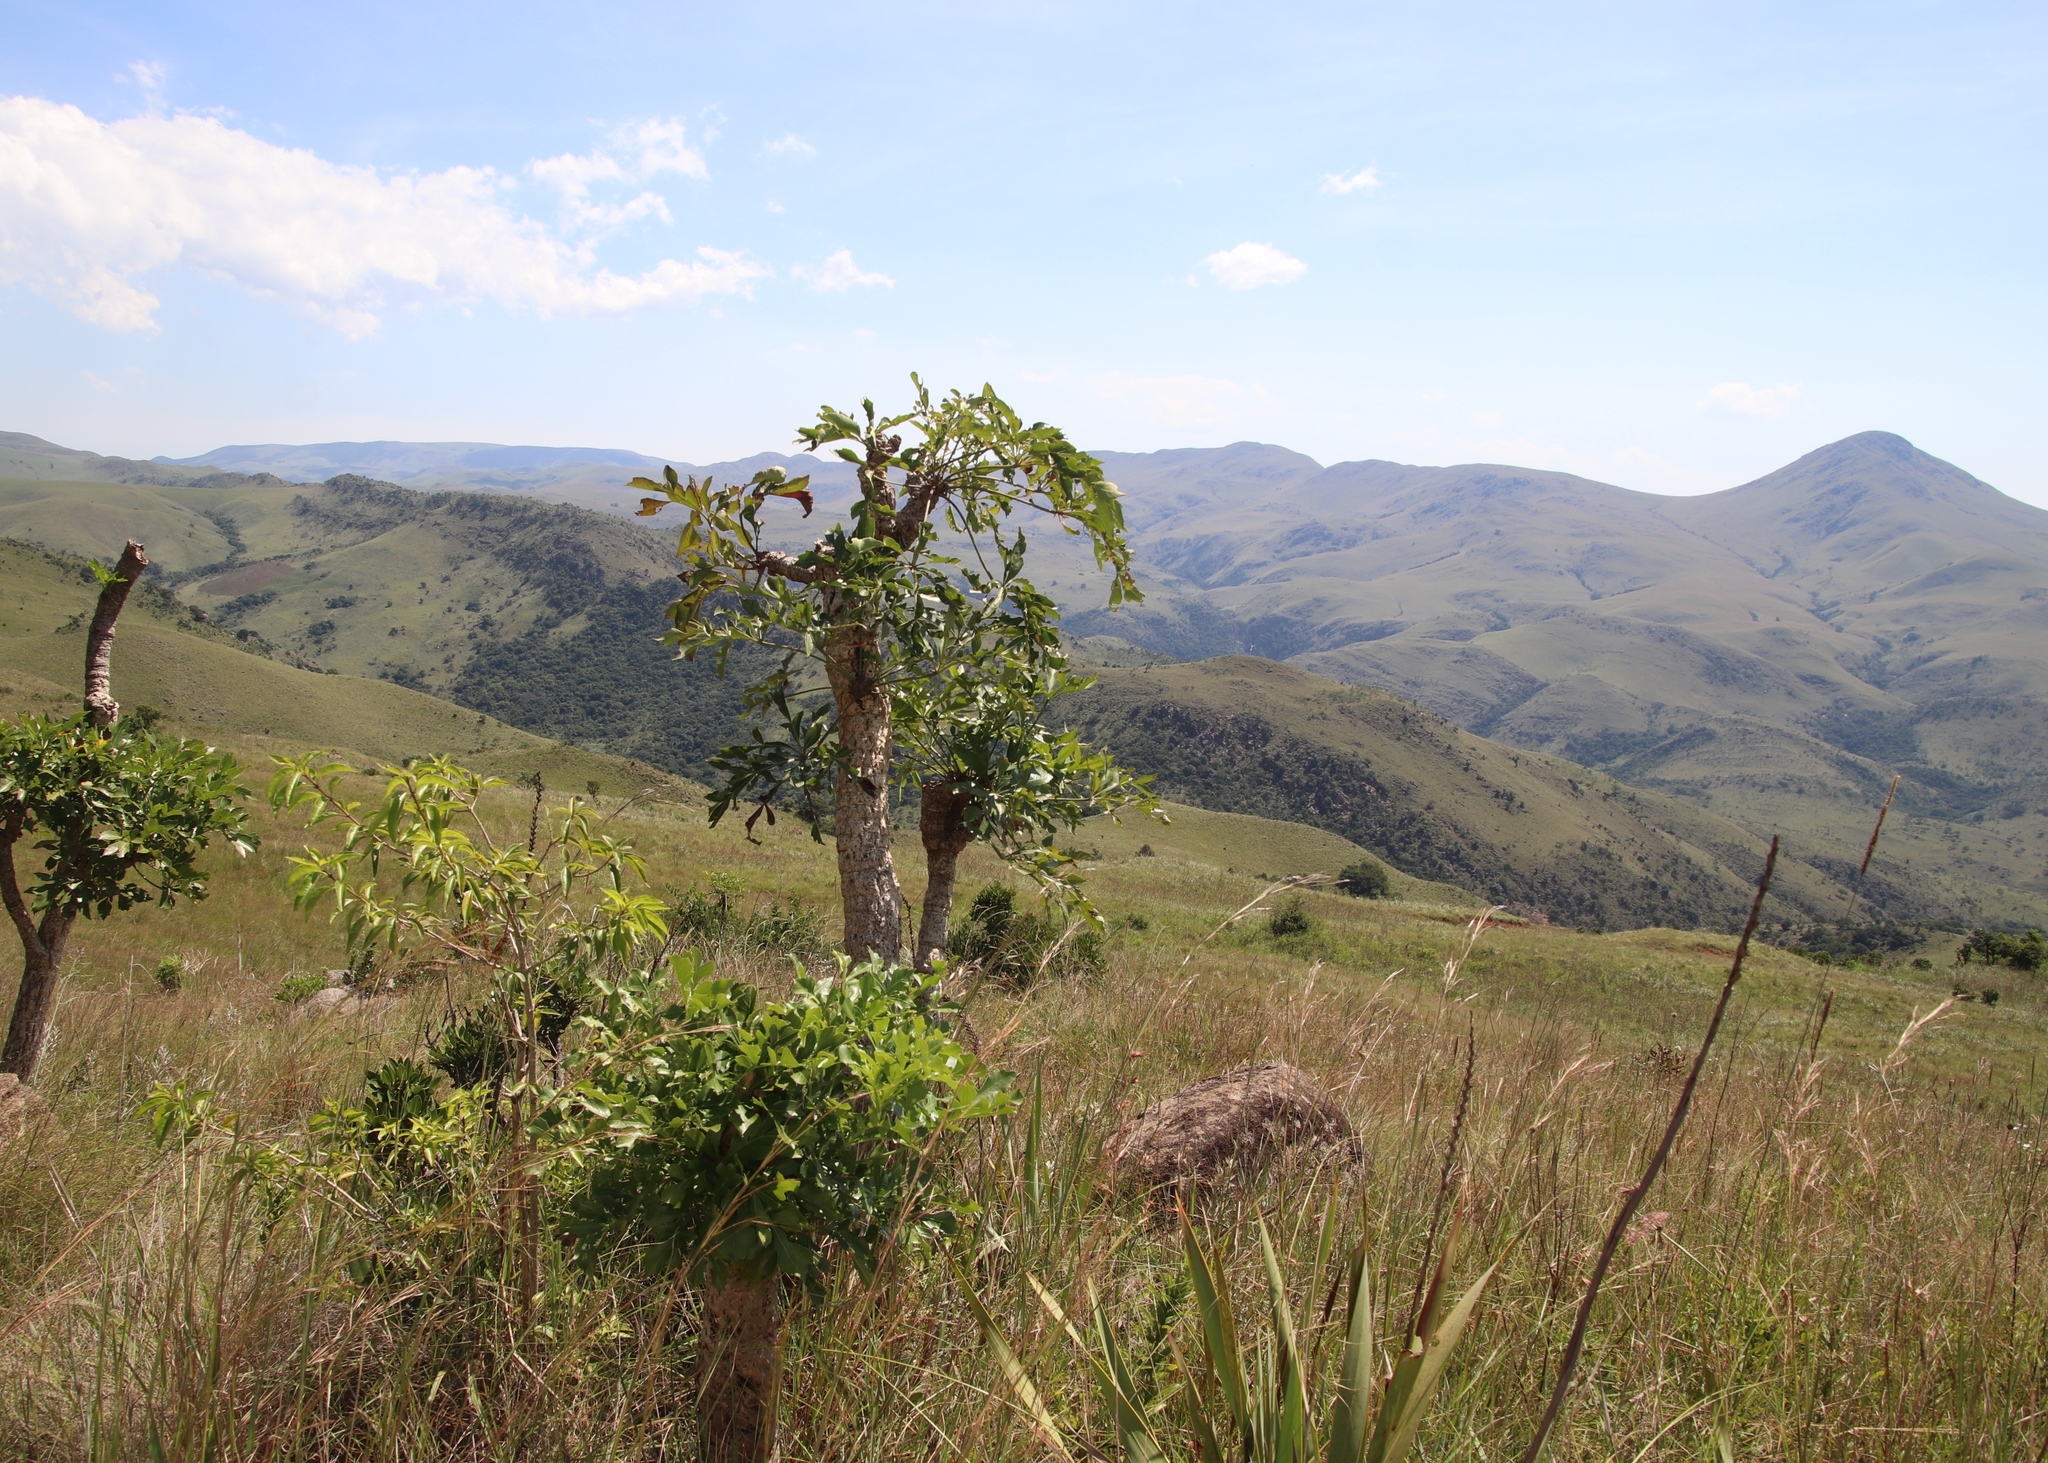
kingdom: Plantae
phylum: Tracheophyta
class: Magnoliopsida
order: Apiales
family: Araliaceae
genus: Cussonia
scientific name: Cussonia spicata
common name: Common cabbagetree
